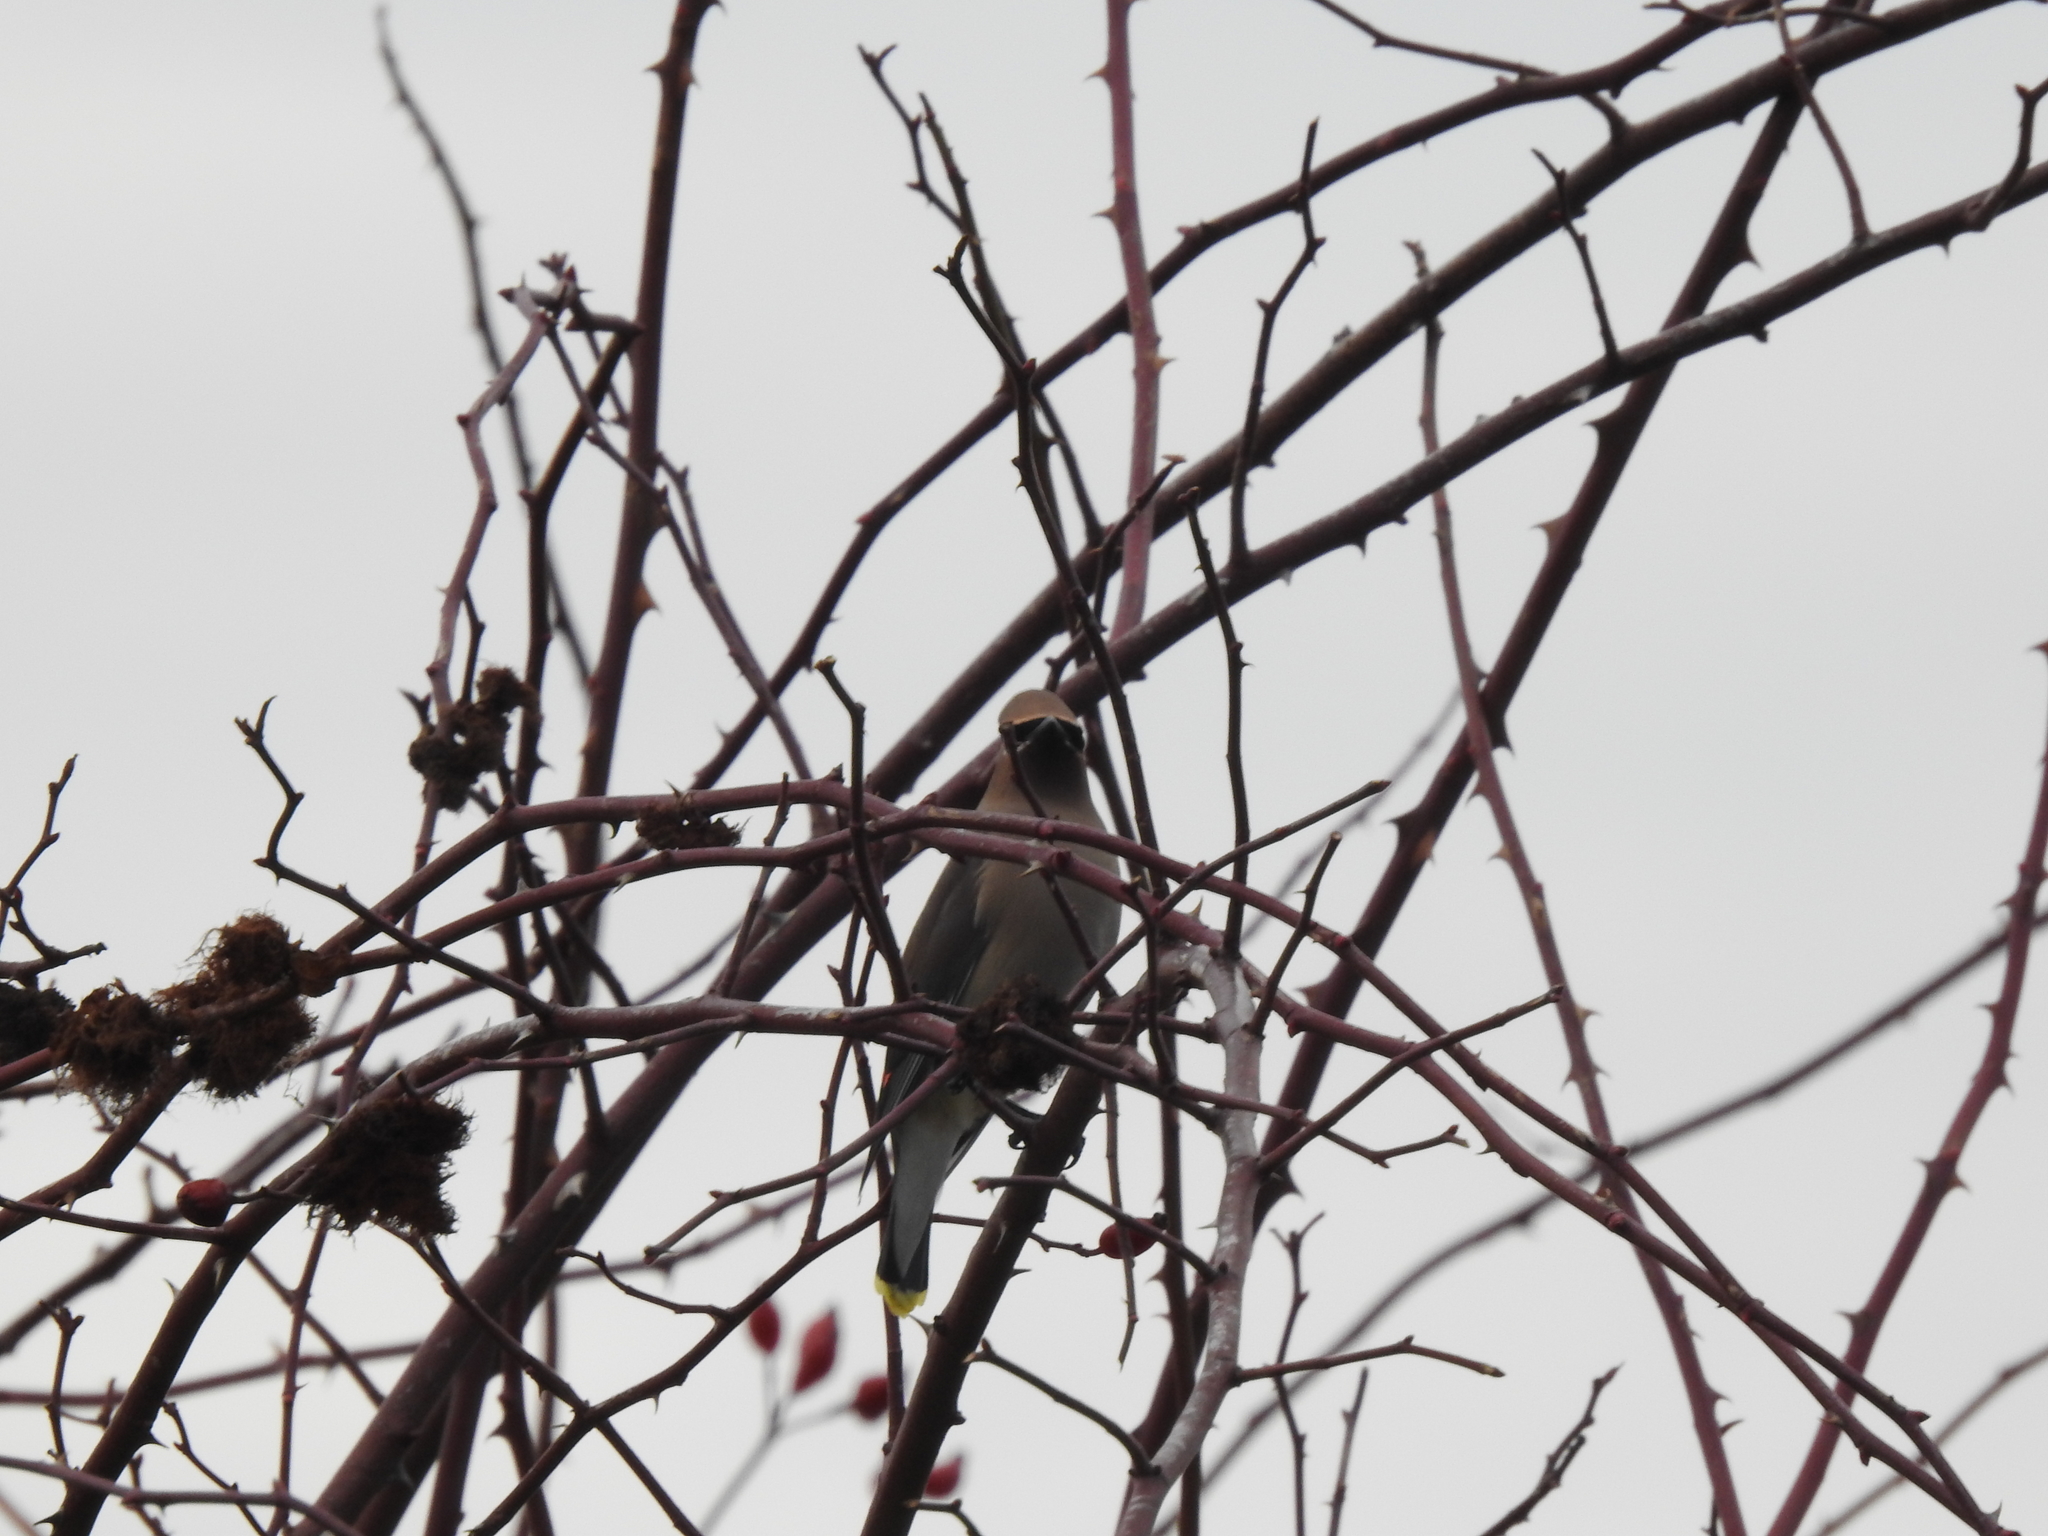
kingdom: Animalia
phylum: Chordata
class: Aves
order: Passeriformes
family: Bombycillidae
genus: Bombycilla
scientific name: Bombycilla cedrorum
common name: Cedar waxwing
